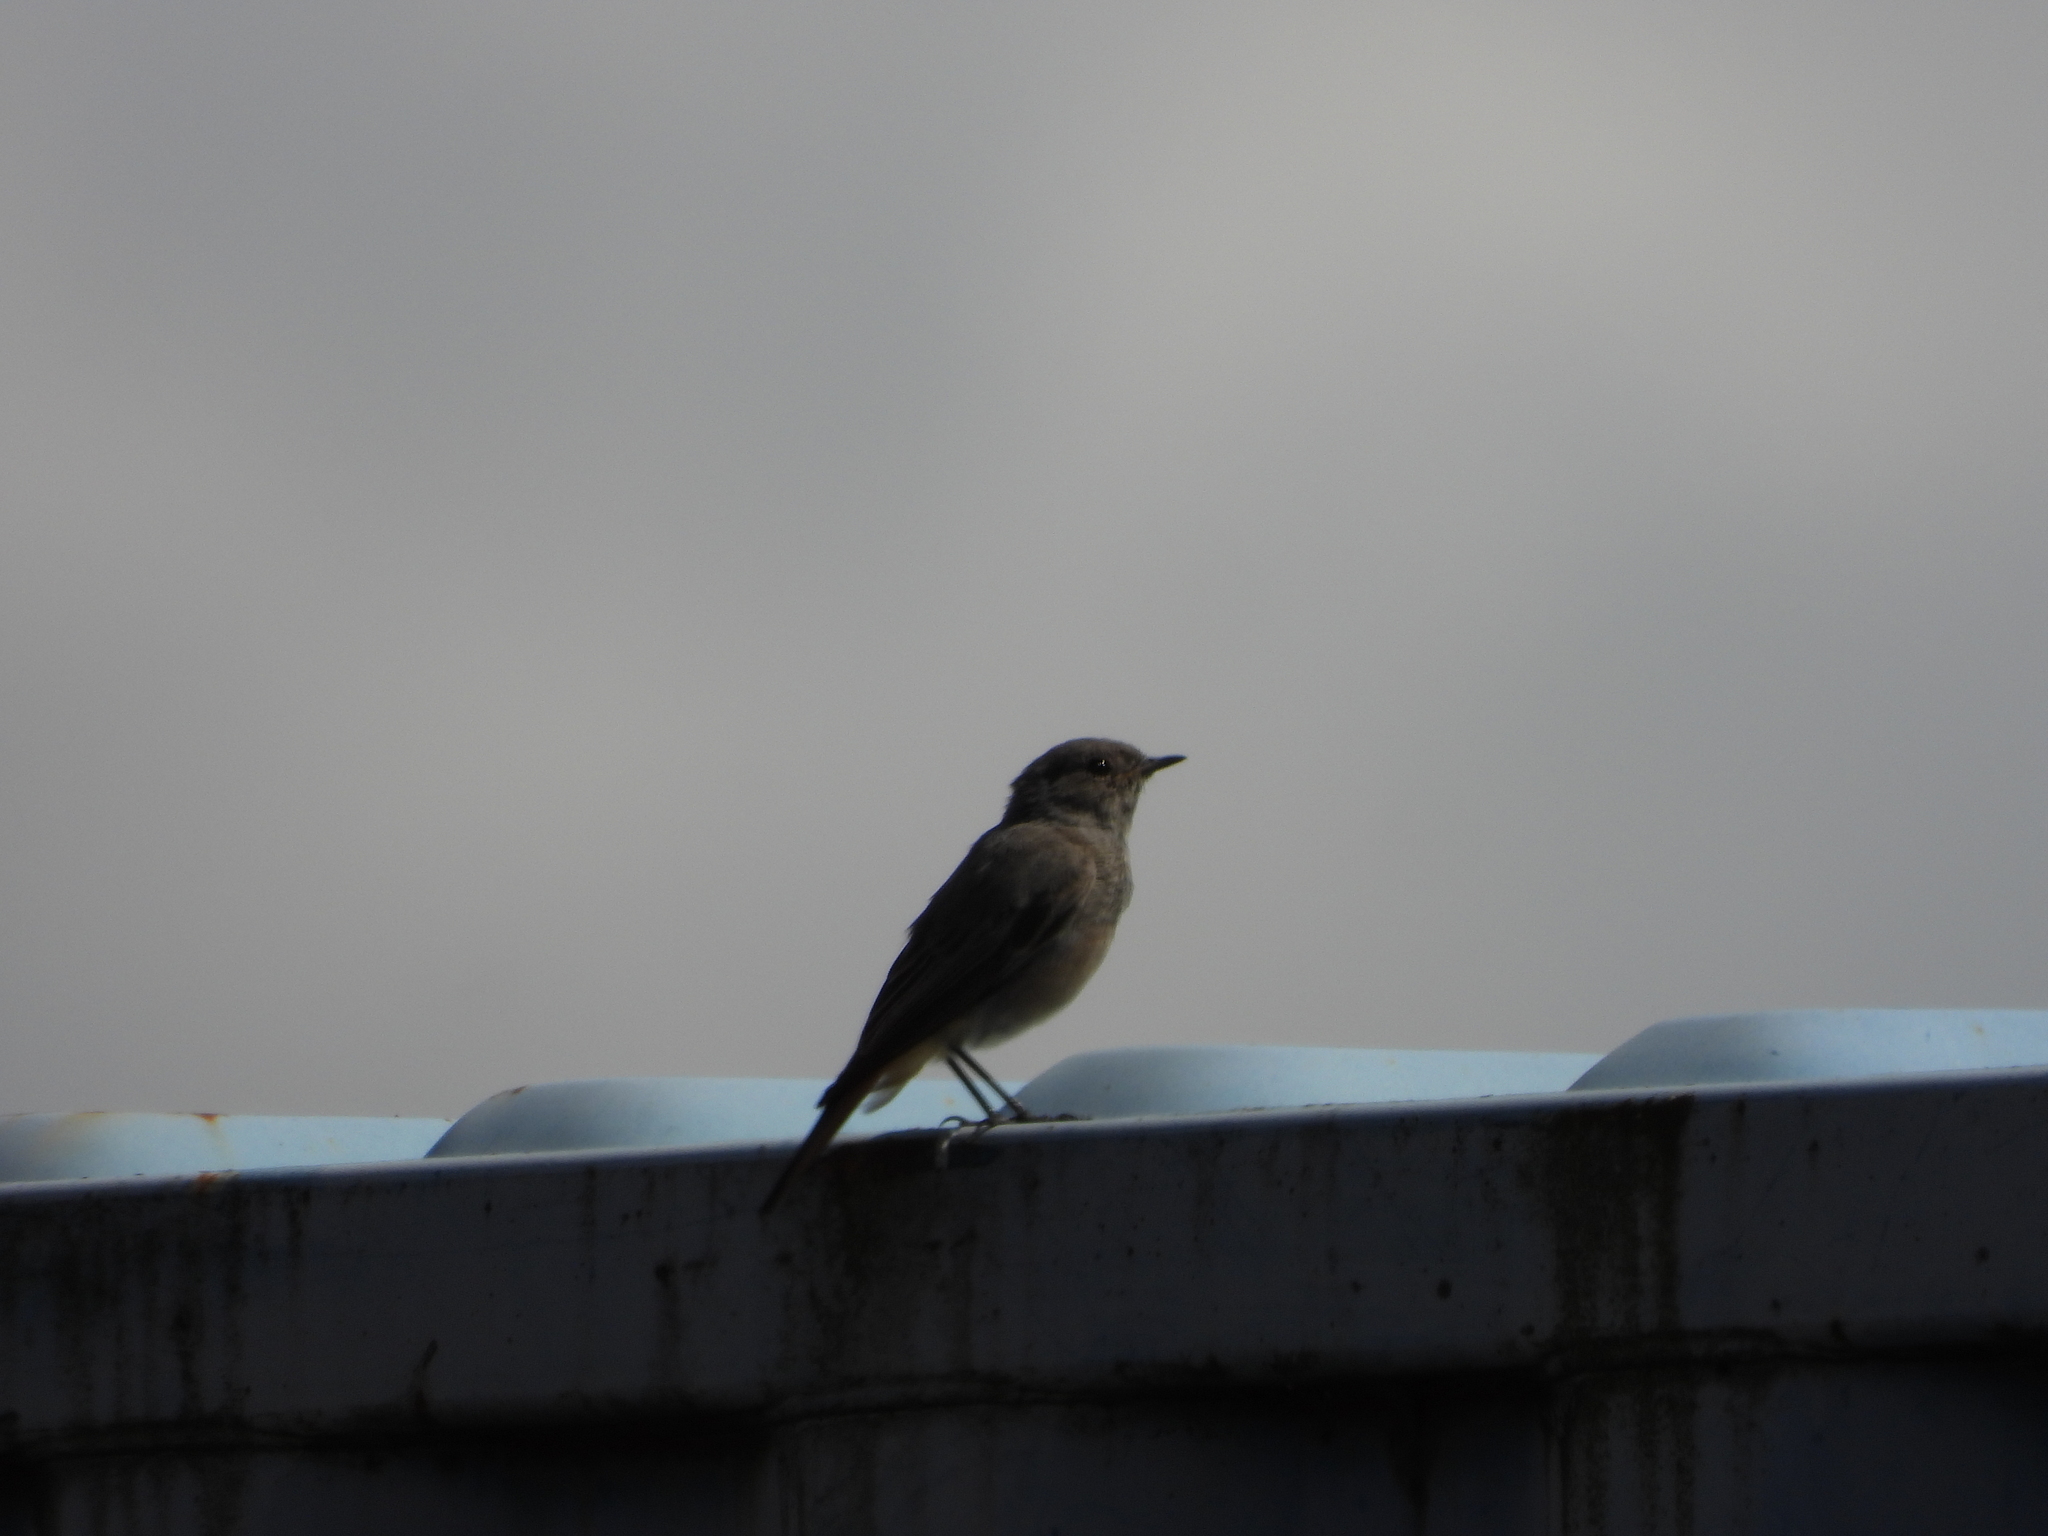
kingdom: Animalia
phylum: Chordata
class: Aves
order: Passeriformes
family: Muscicapidae
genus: Phoenicurus
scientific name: Phoenicurus ochruros
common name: Black redstart
